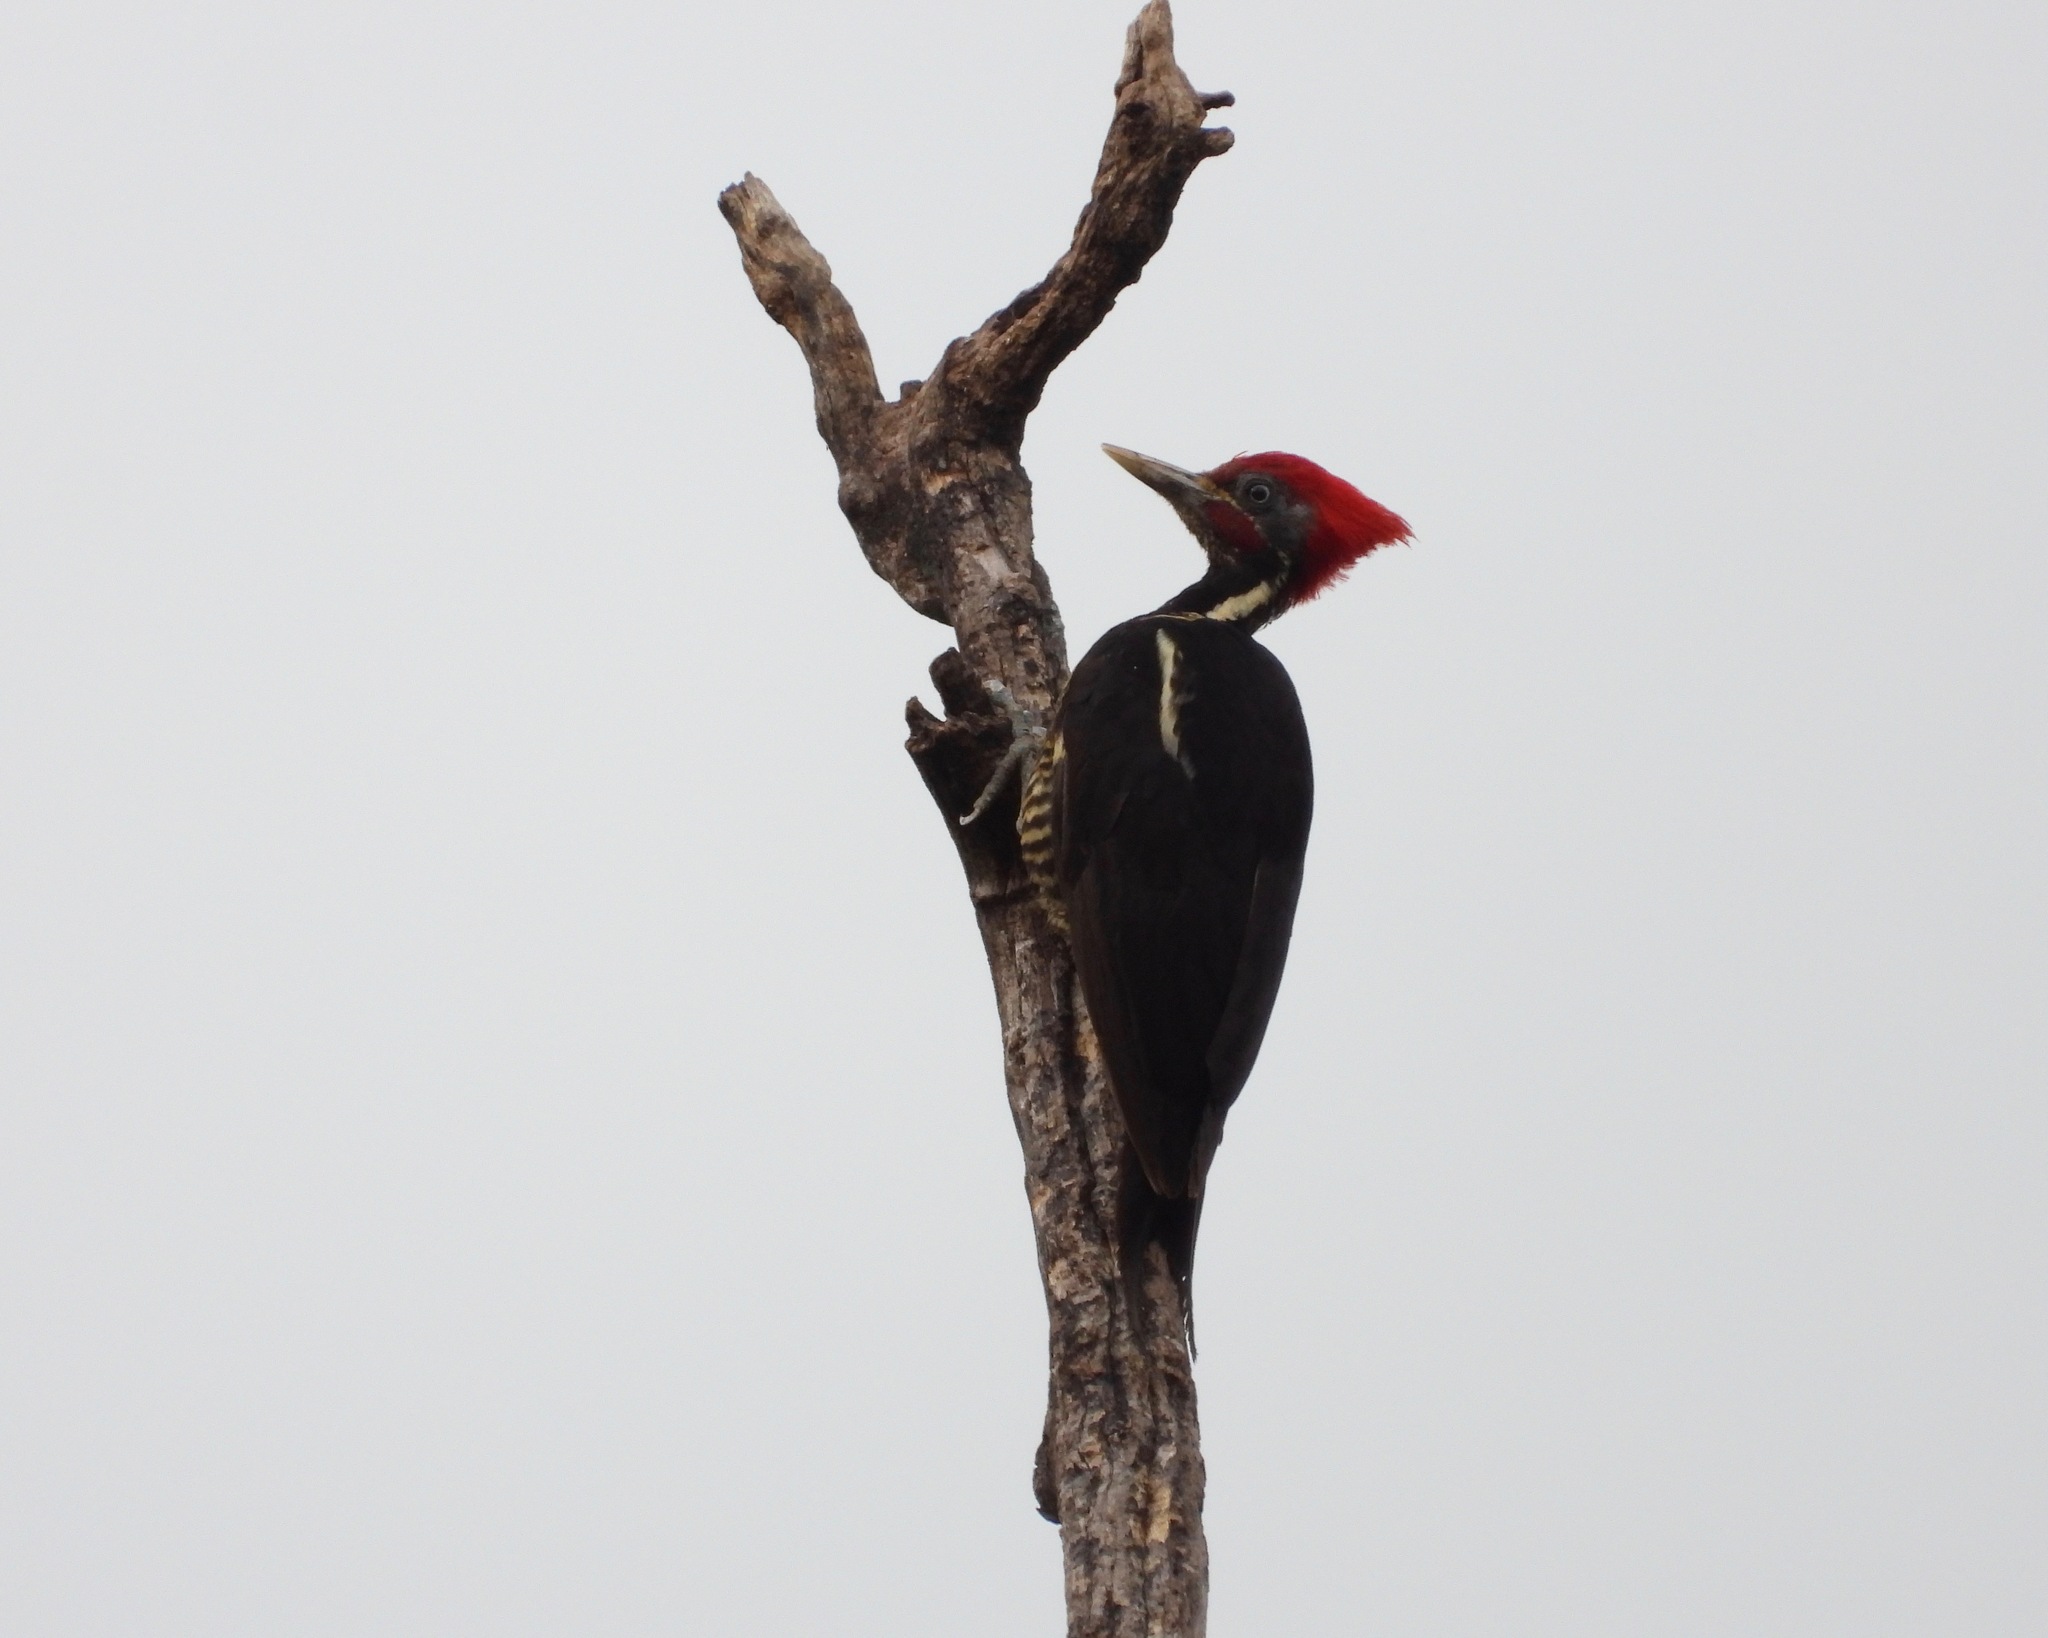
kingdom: Animalia
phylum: Chordata
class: Aves
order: Piciformes
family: Picidae
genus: Dryocopus
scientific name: Dryocopus lineatus
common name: Lineated woodpecker
